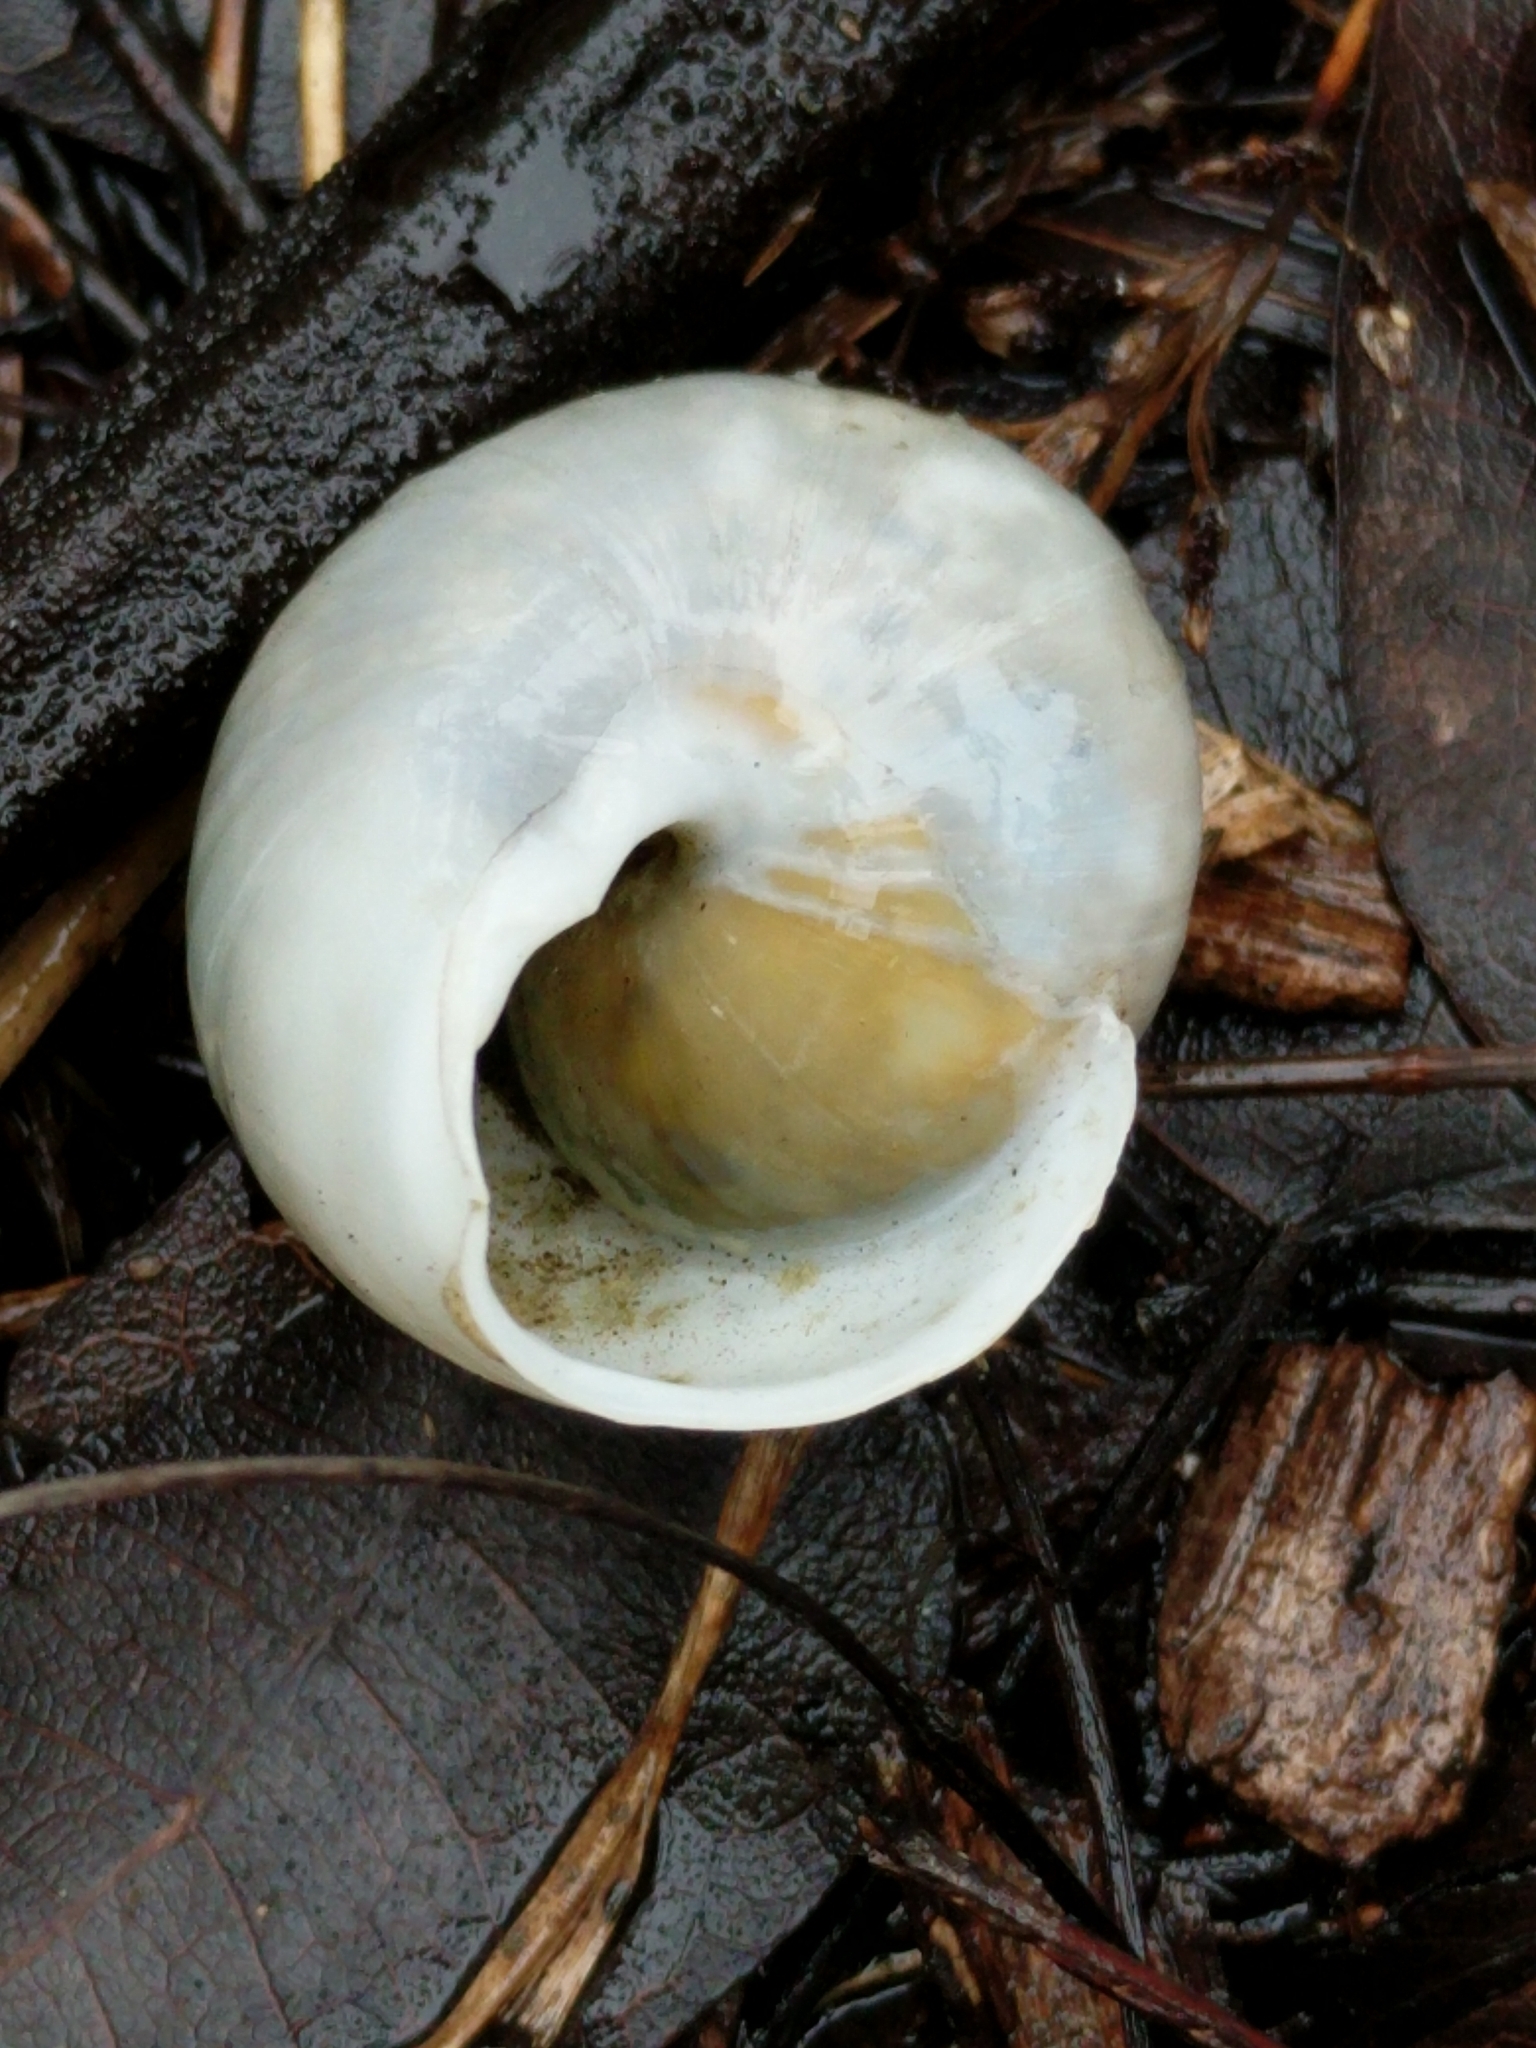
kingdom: Animalia
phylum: Mollusca
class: Gastropoda
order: Stylommatophora
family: Zachrysiidae
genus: Zachrysia
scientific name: Zachrysia provisoria
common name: Garden zachrysia
